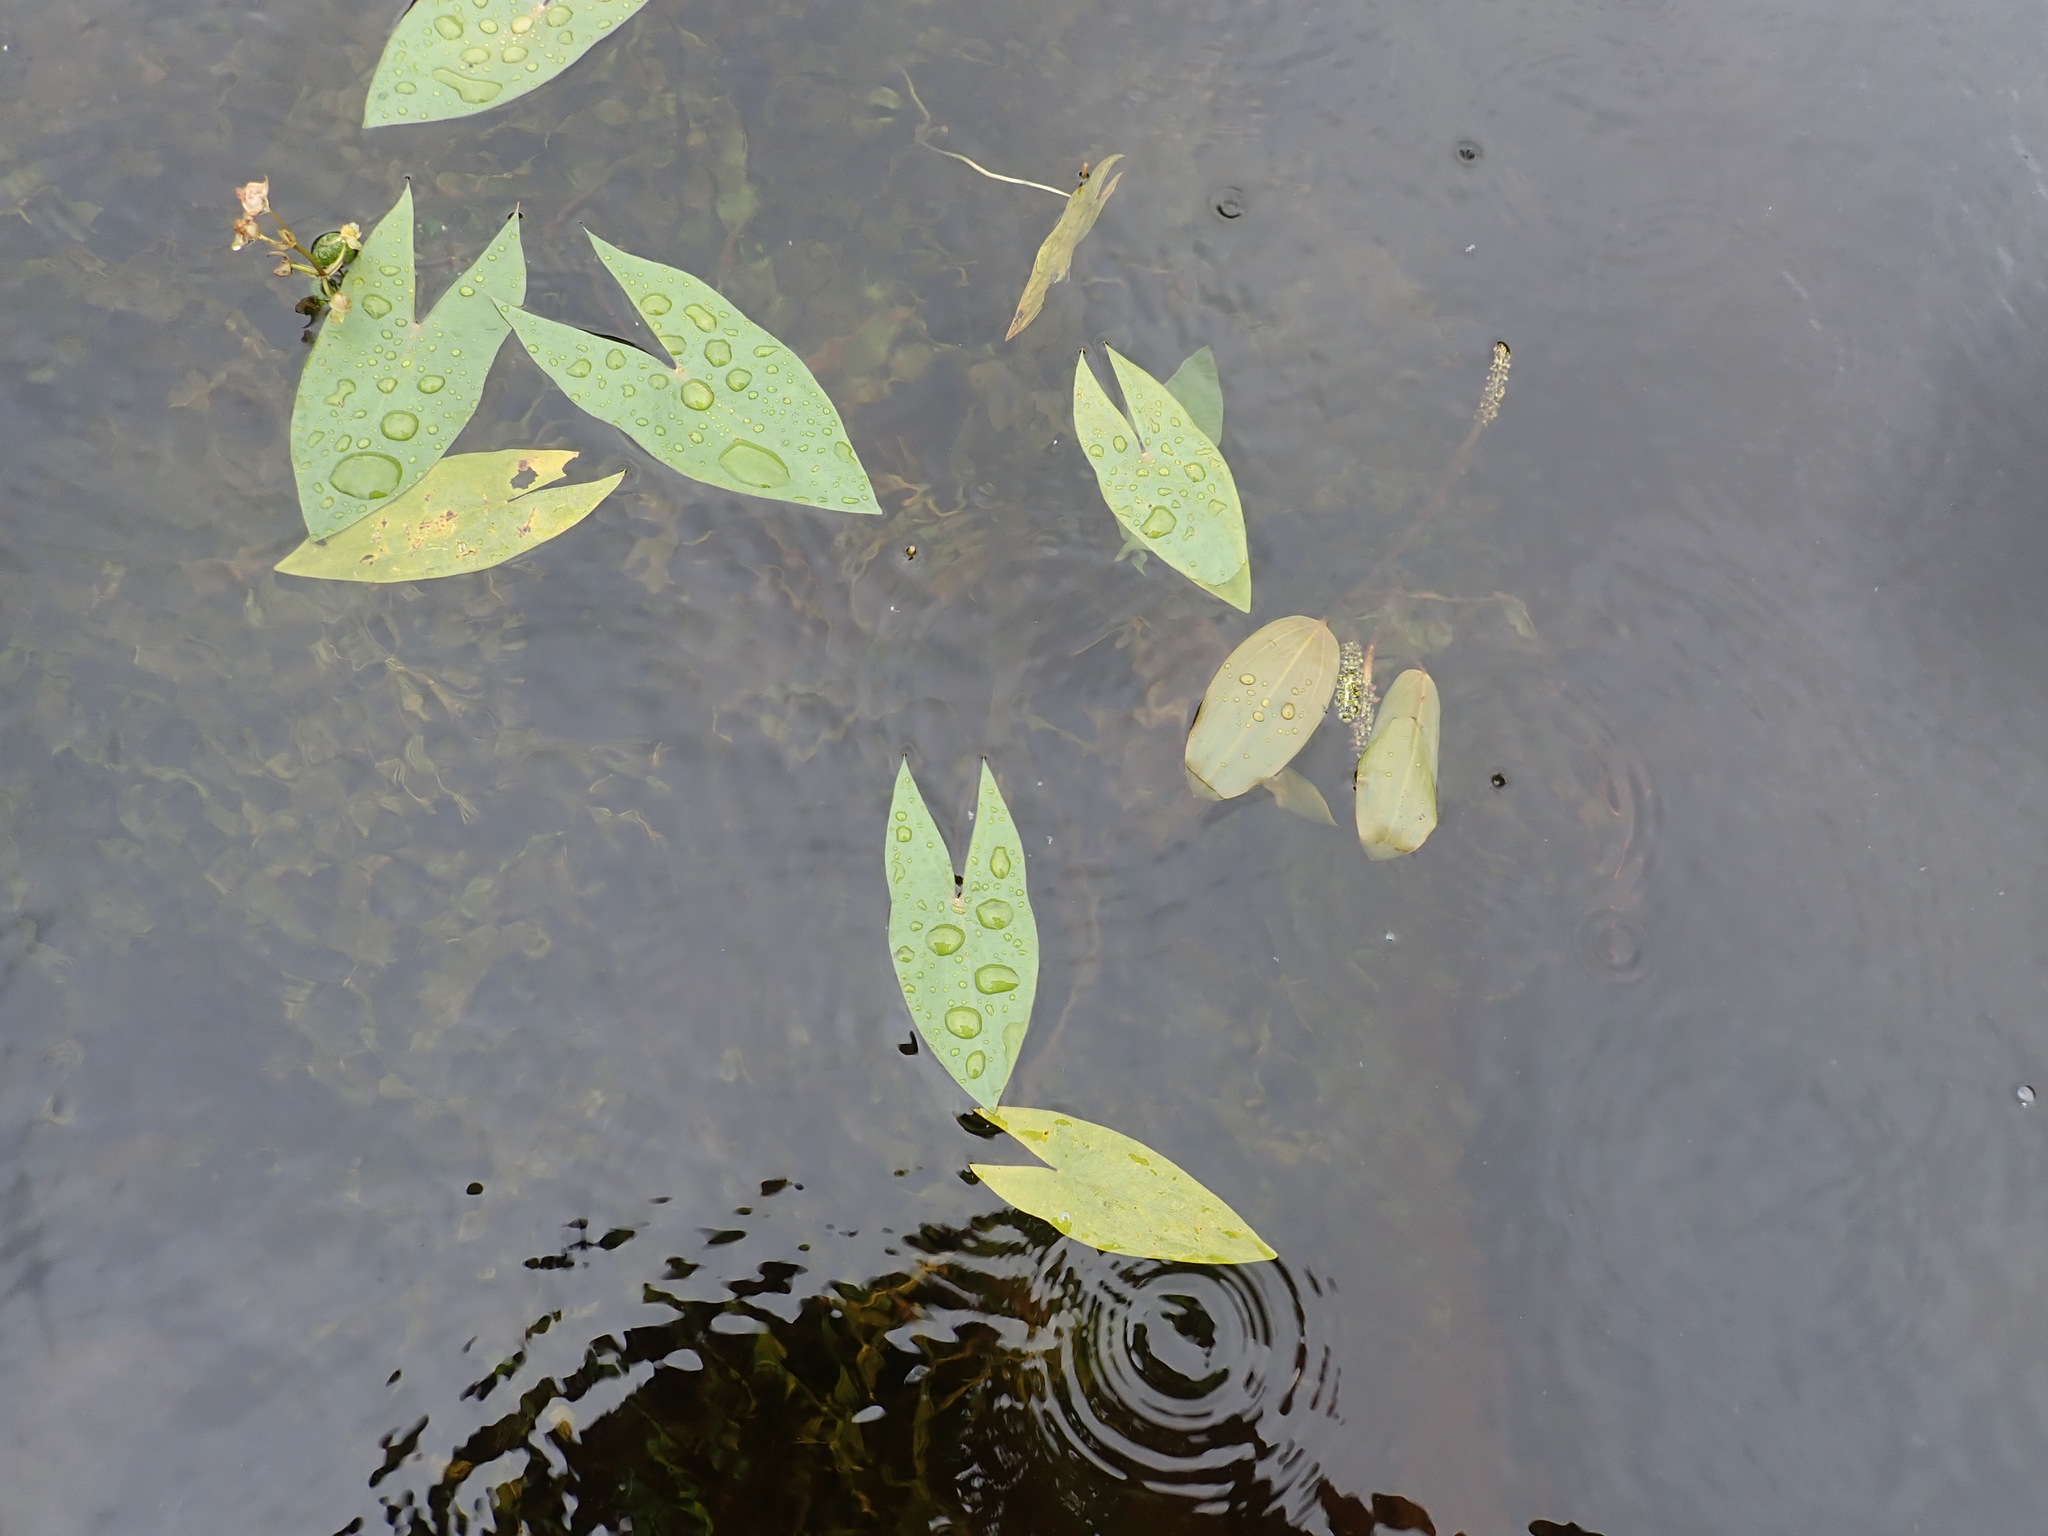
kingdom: Plantae
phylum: Tracheophyta
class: Liliopsida
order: Alismatales
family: Alismataceae
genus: Sagittaria
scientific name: Sagittaria cuneata
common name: Northern arrowhead
